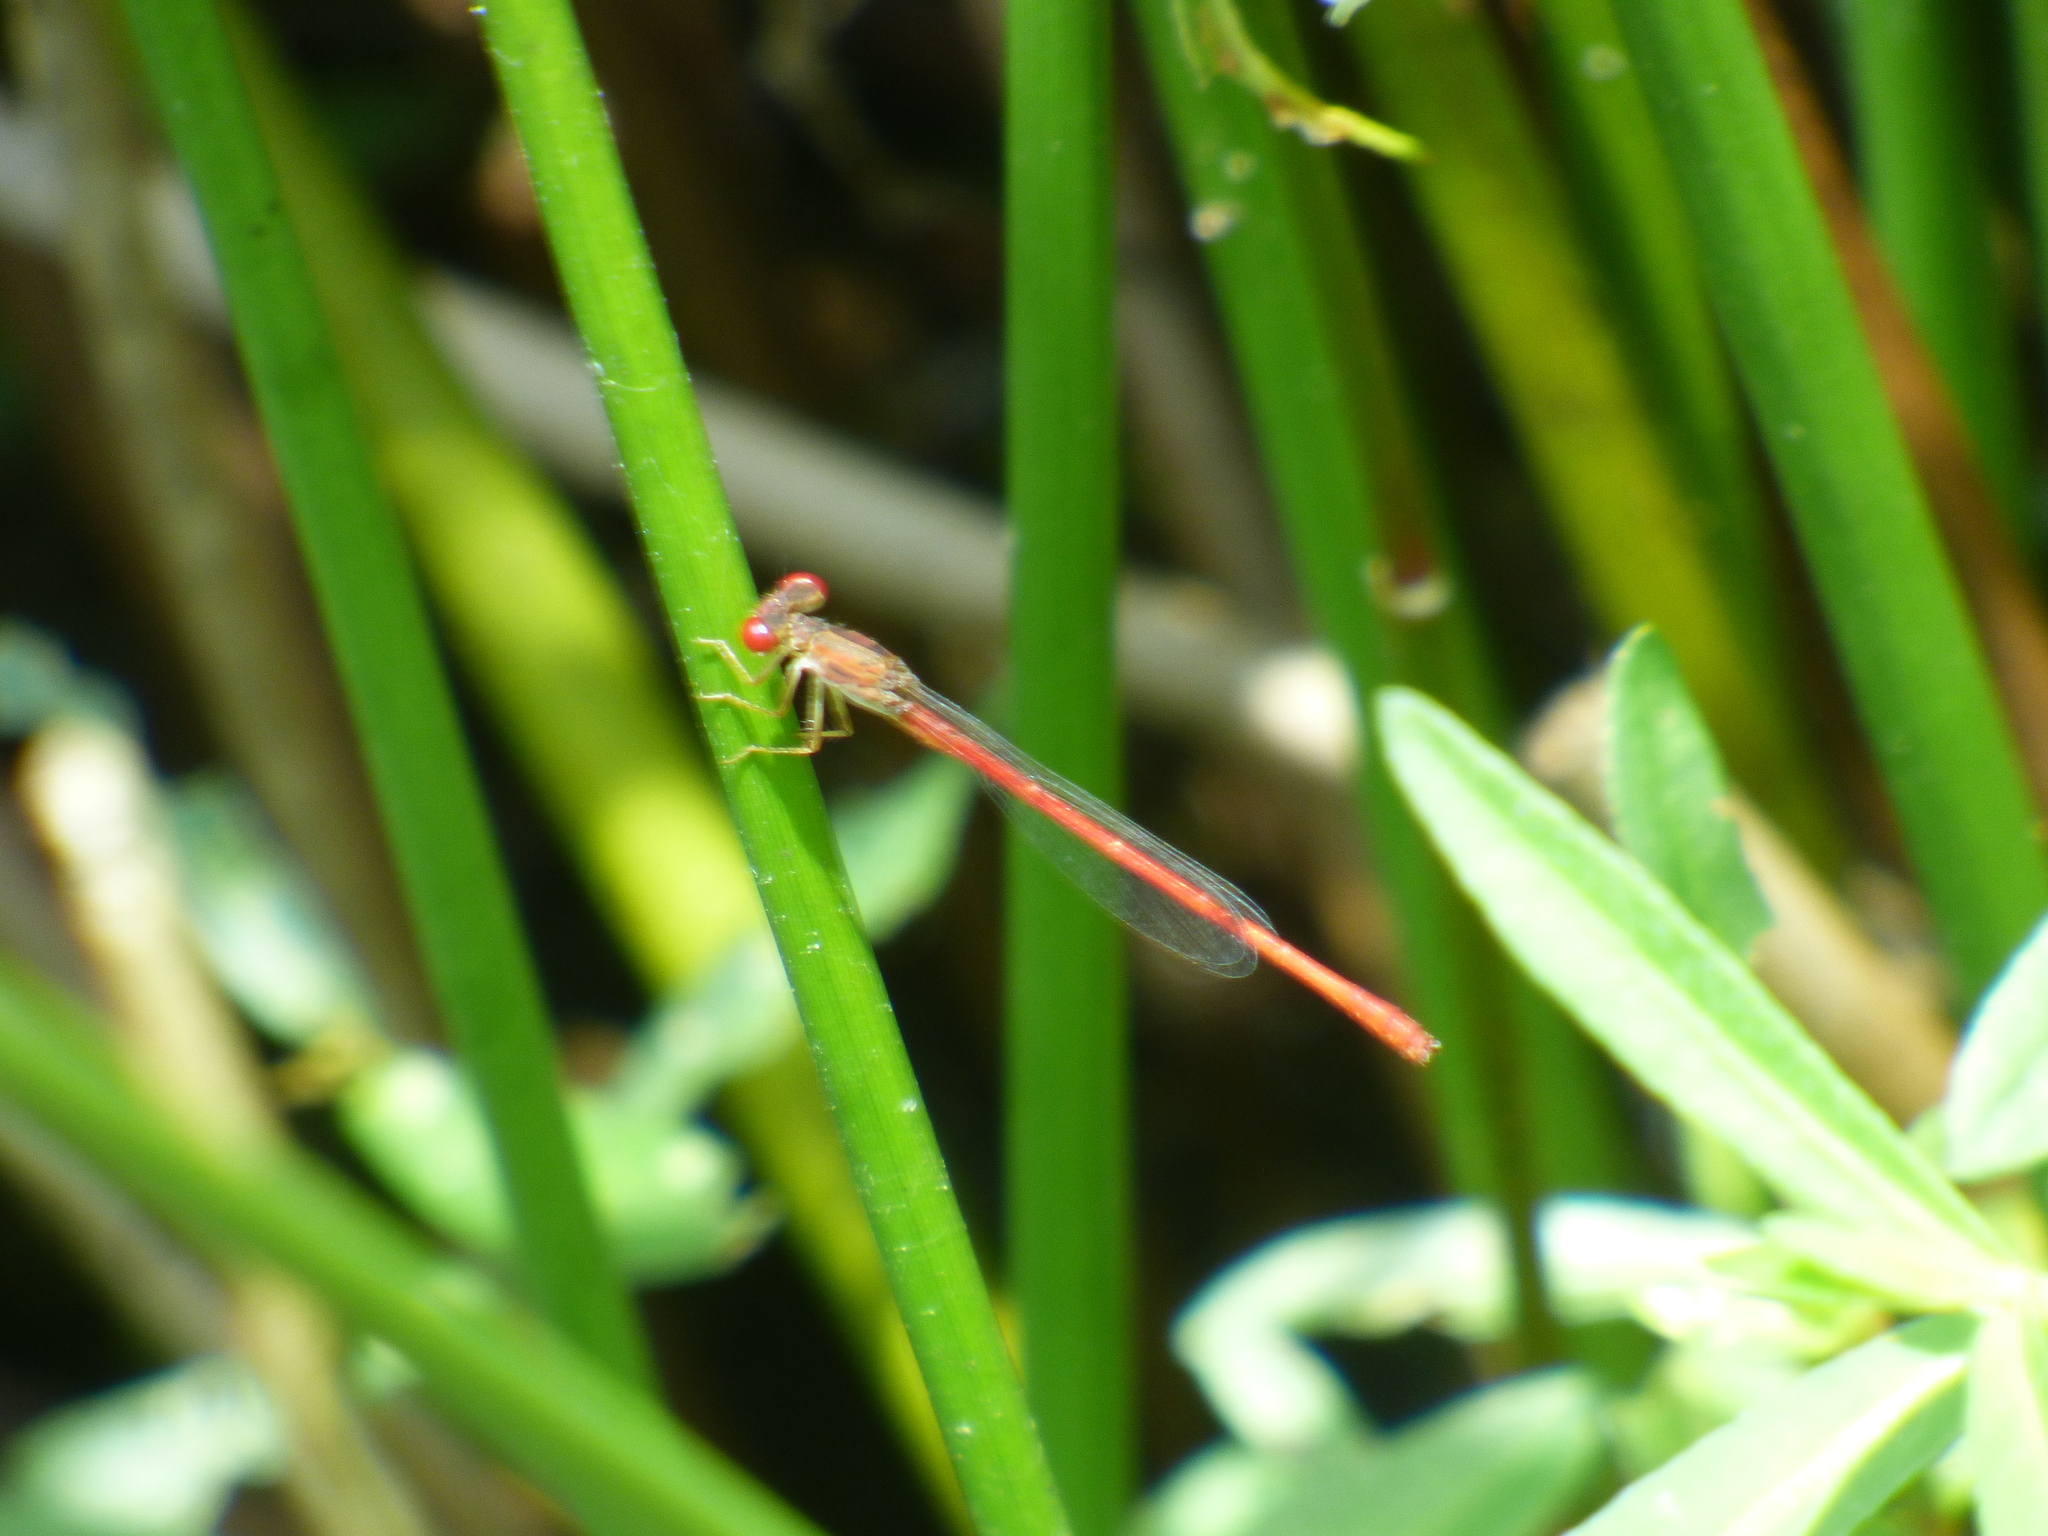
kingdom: Animalia
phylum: Arthropoda
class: Insecta
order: Odonata
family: Coenagrionidae
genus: Telebasis
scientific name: Telebasis byersi
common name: Duckweed firetail
